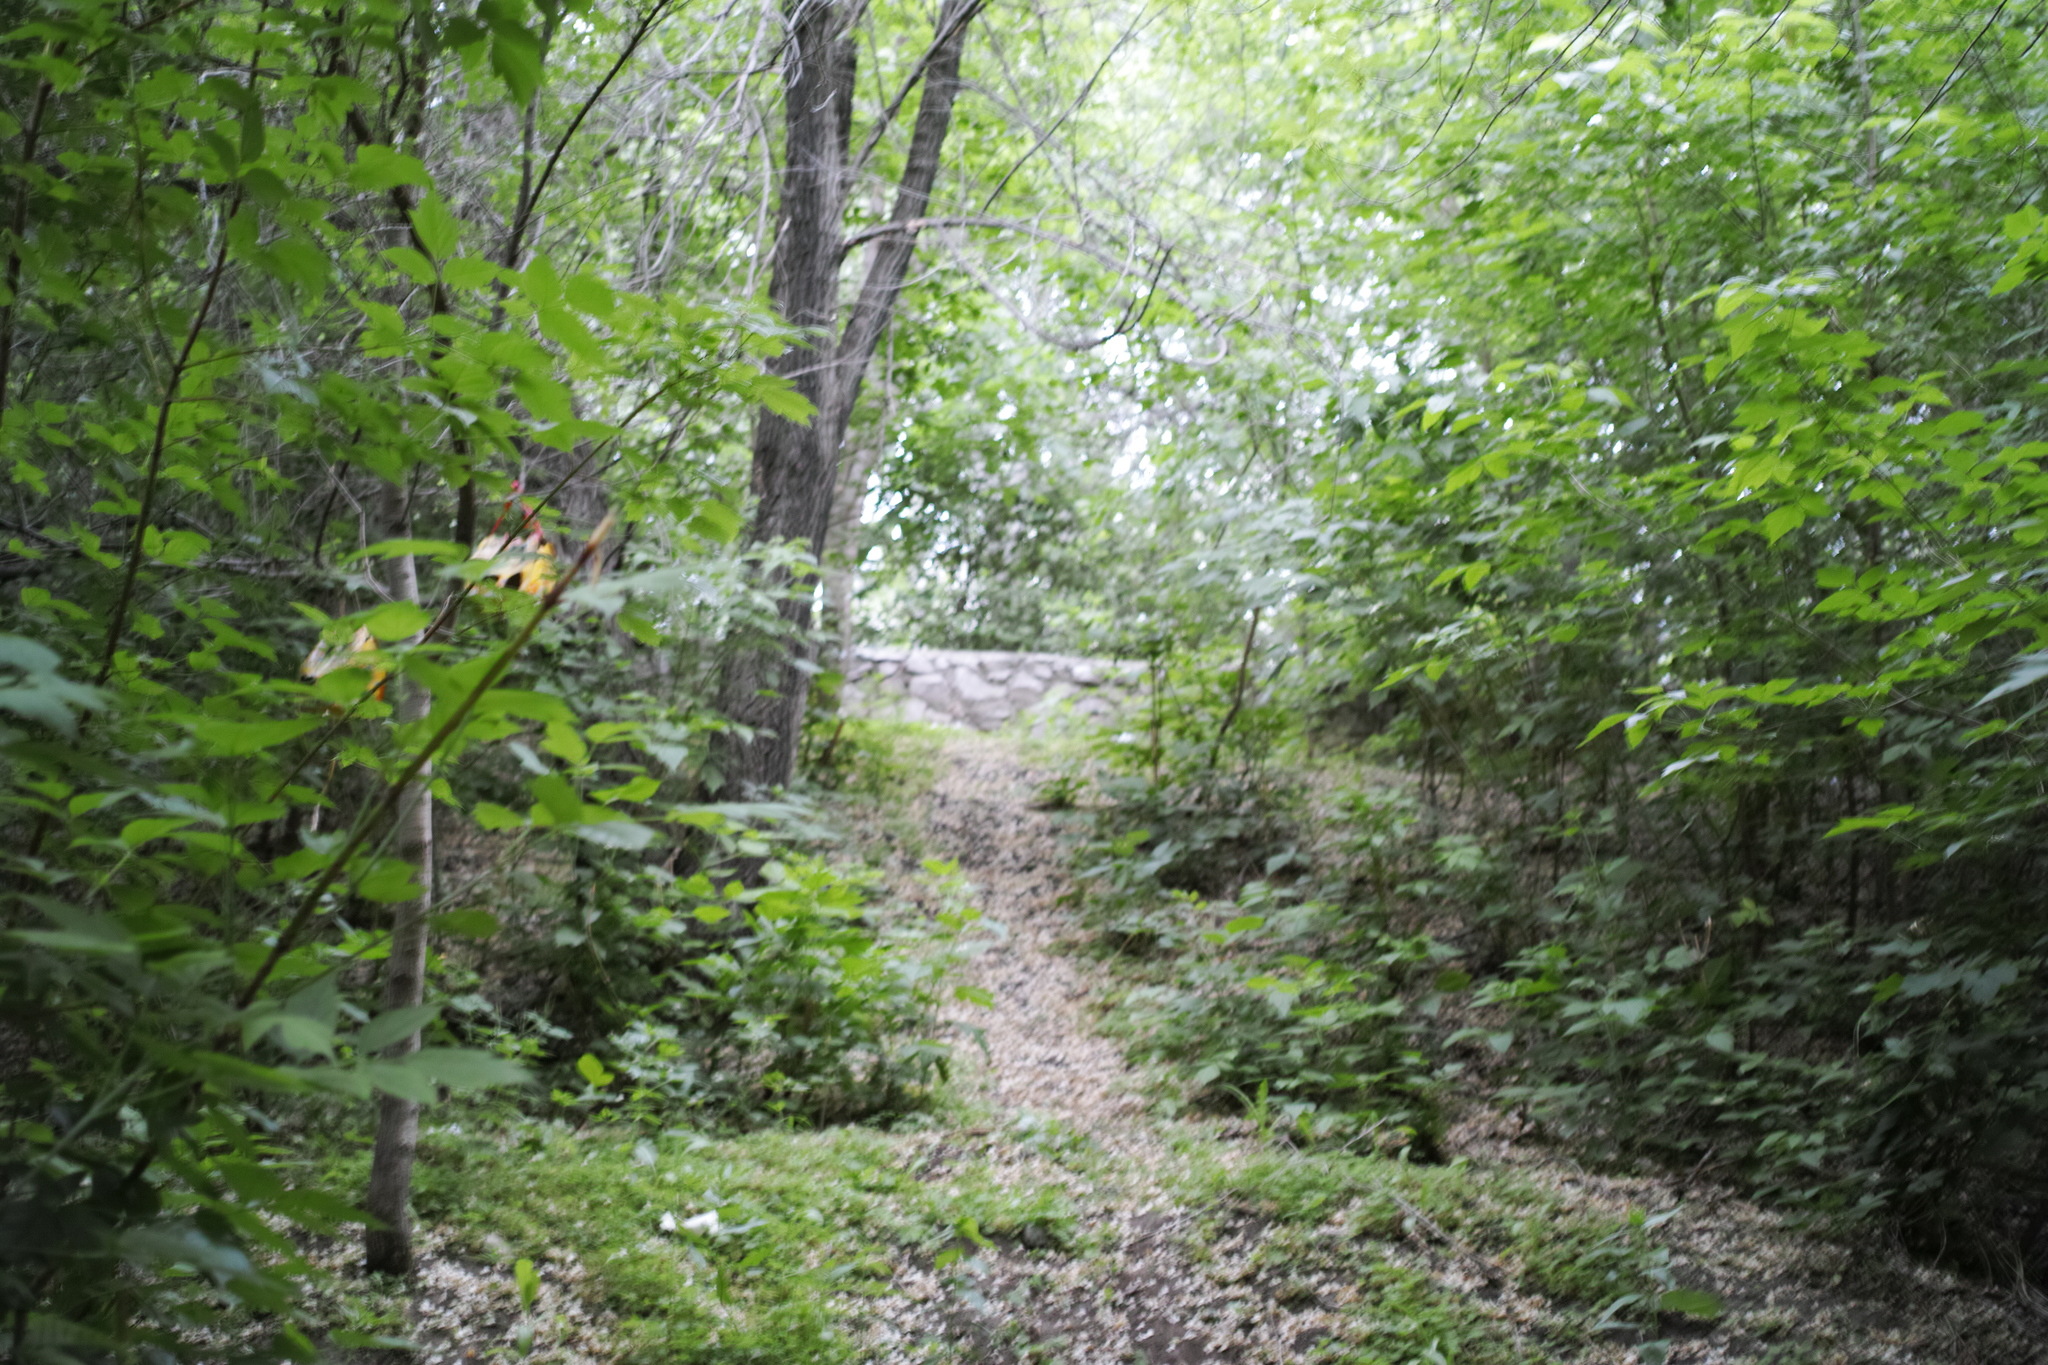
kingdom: Plantae
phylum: Tracheophyta
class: Magnoliopsida
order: Sapindales
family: Sapindaceae
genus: Acer
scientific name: Acer negundo
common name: Ashleaf maple
